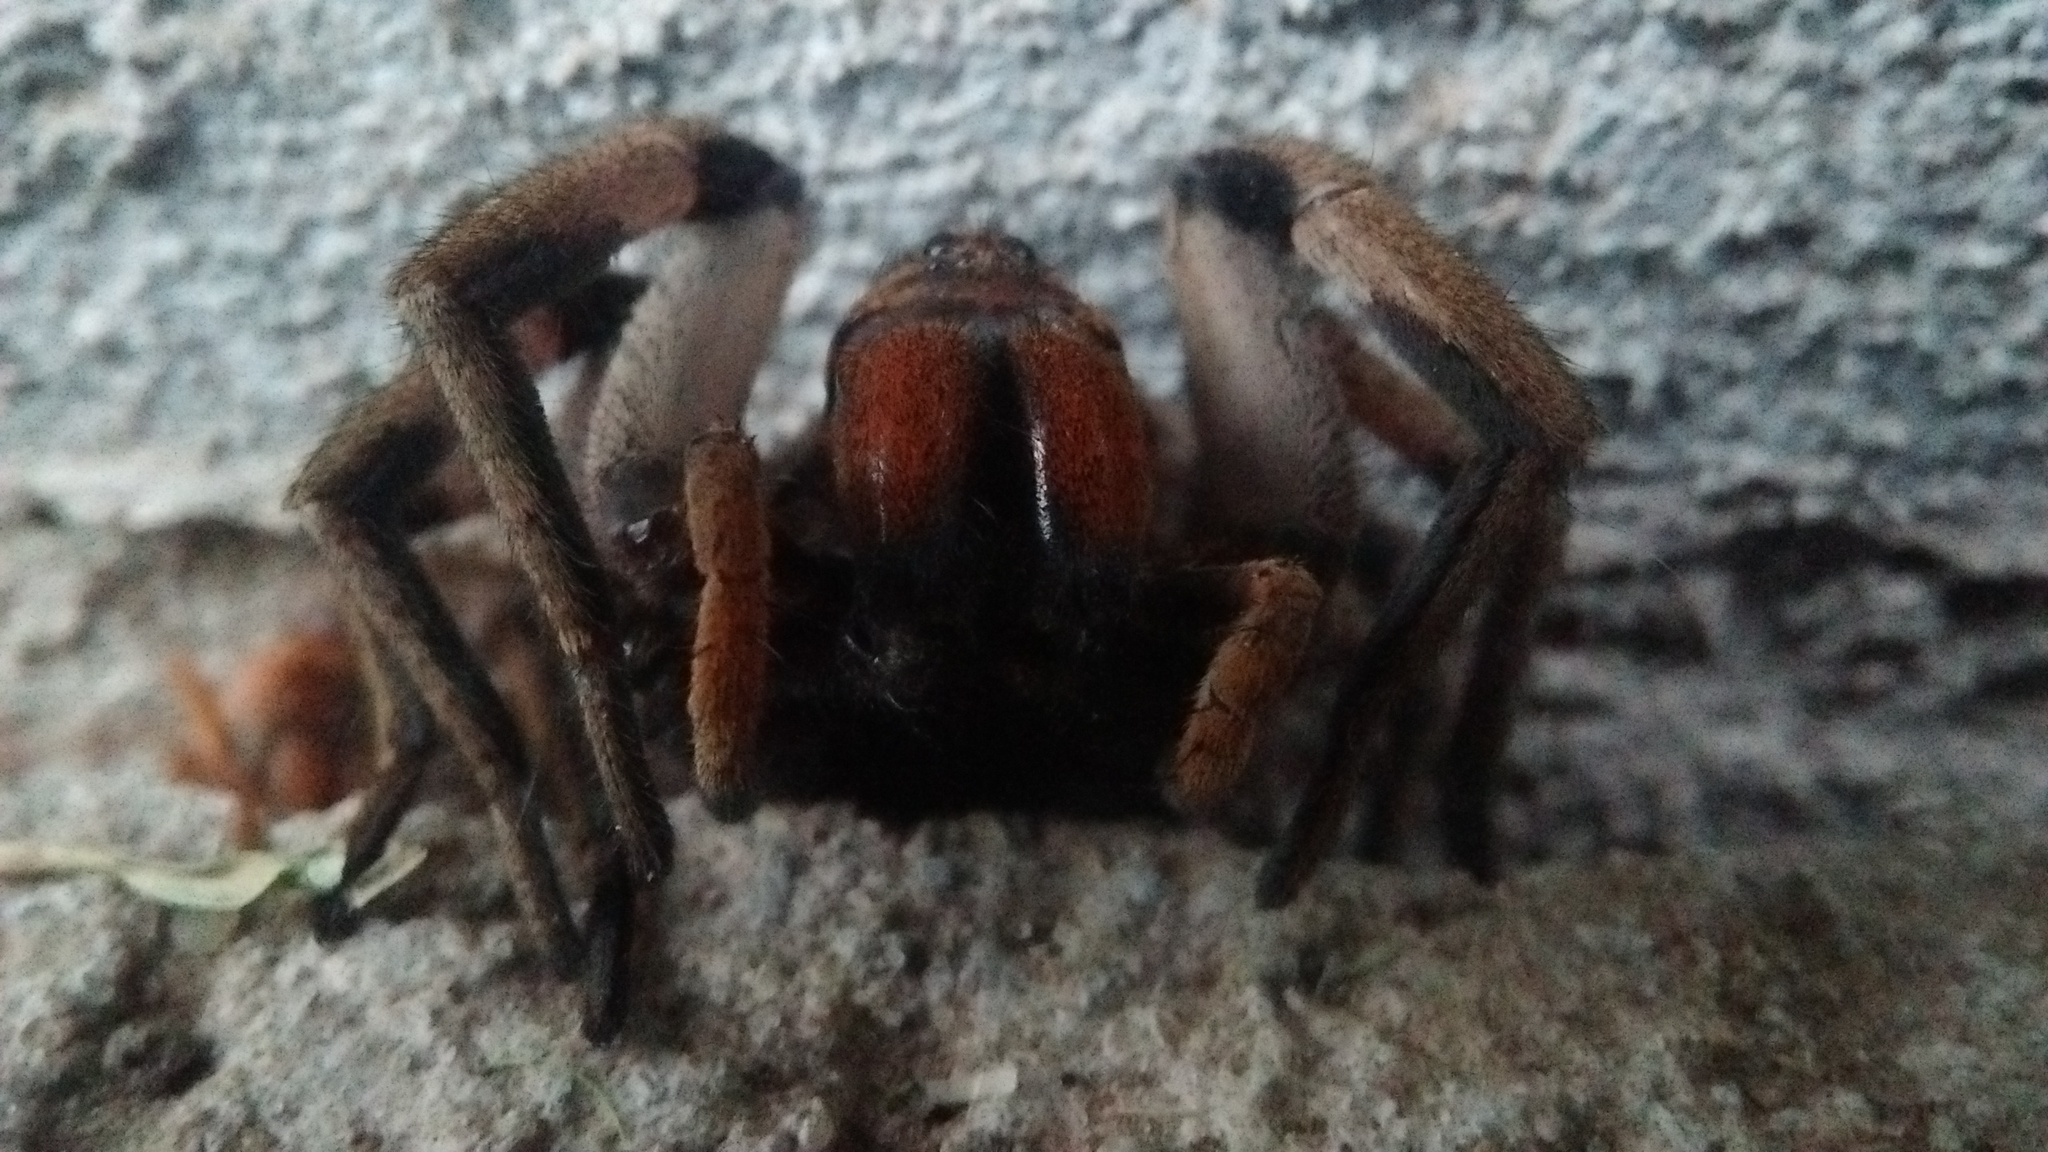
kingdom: Animalia
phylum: Arthropoda
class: Arachnida
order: Araneae
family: Lycosidae
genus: Lycosa
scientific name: Lycosa erythrognatha
